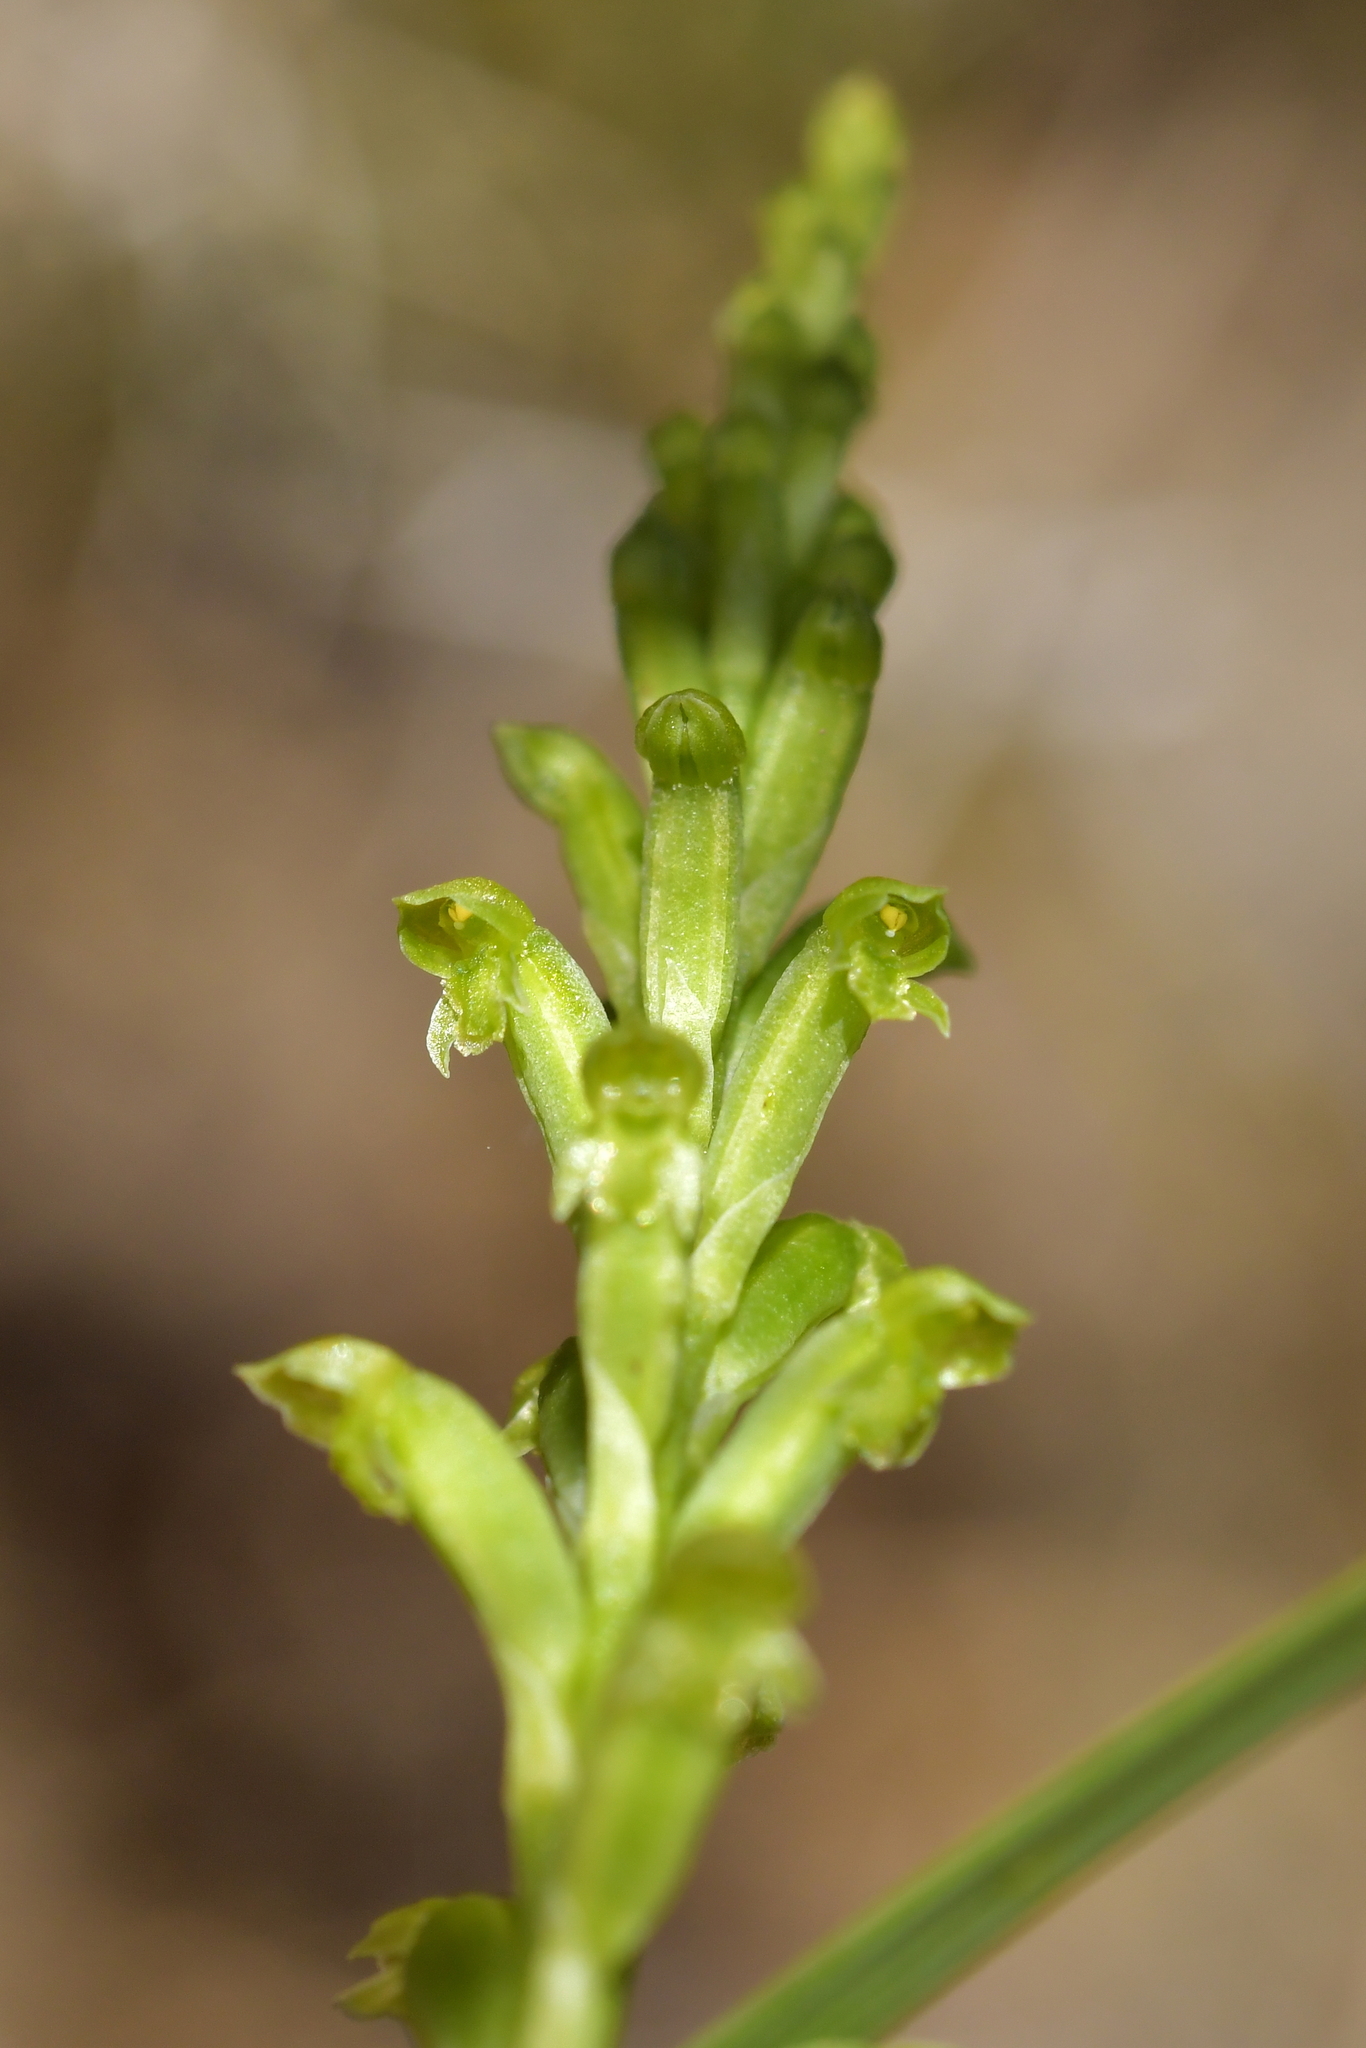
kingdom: Plantae
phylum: Tracheophyta
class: Liliopsida
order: Asparagales
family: Orchidaceae
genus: Microtis
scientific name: Microtis unifolia
